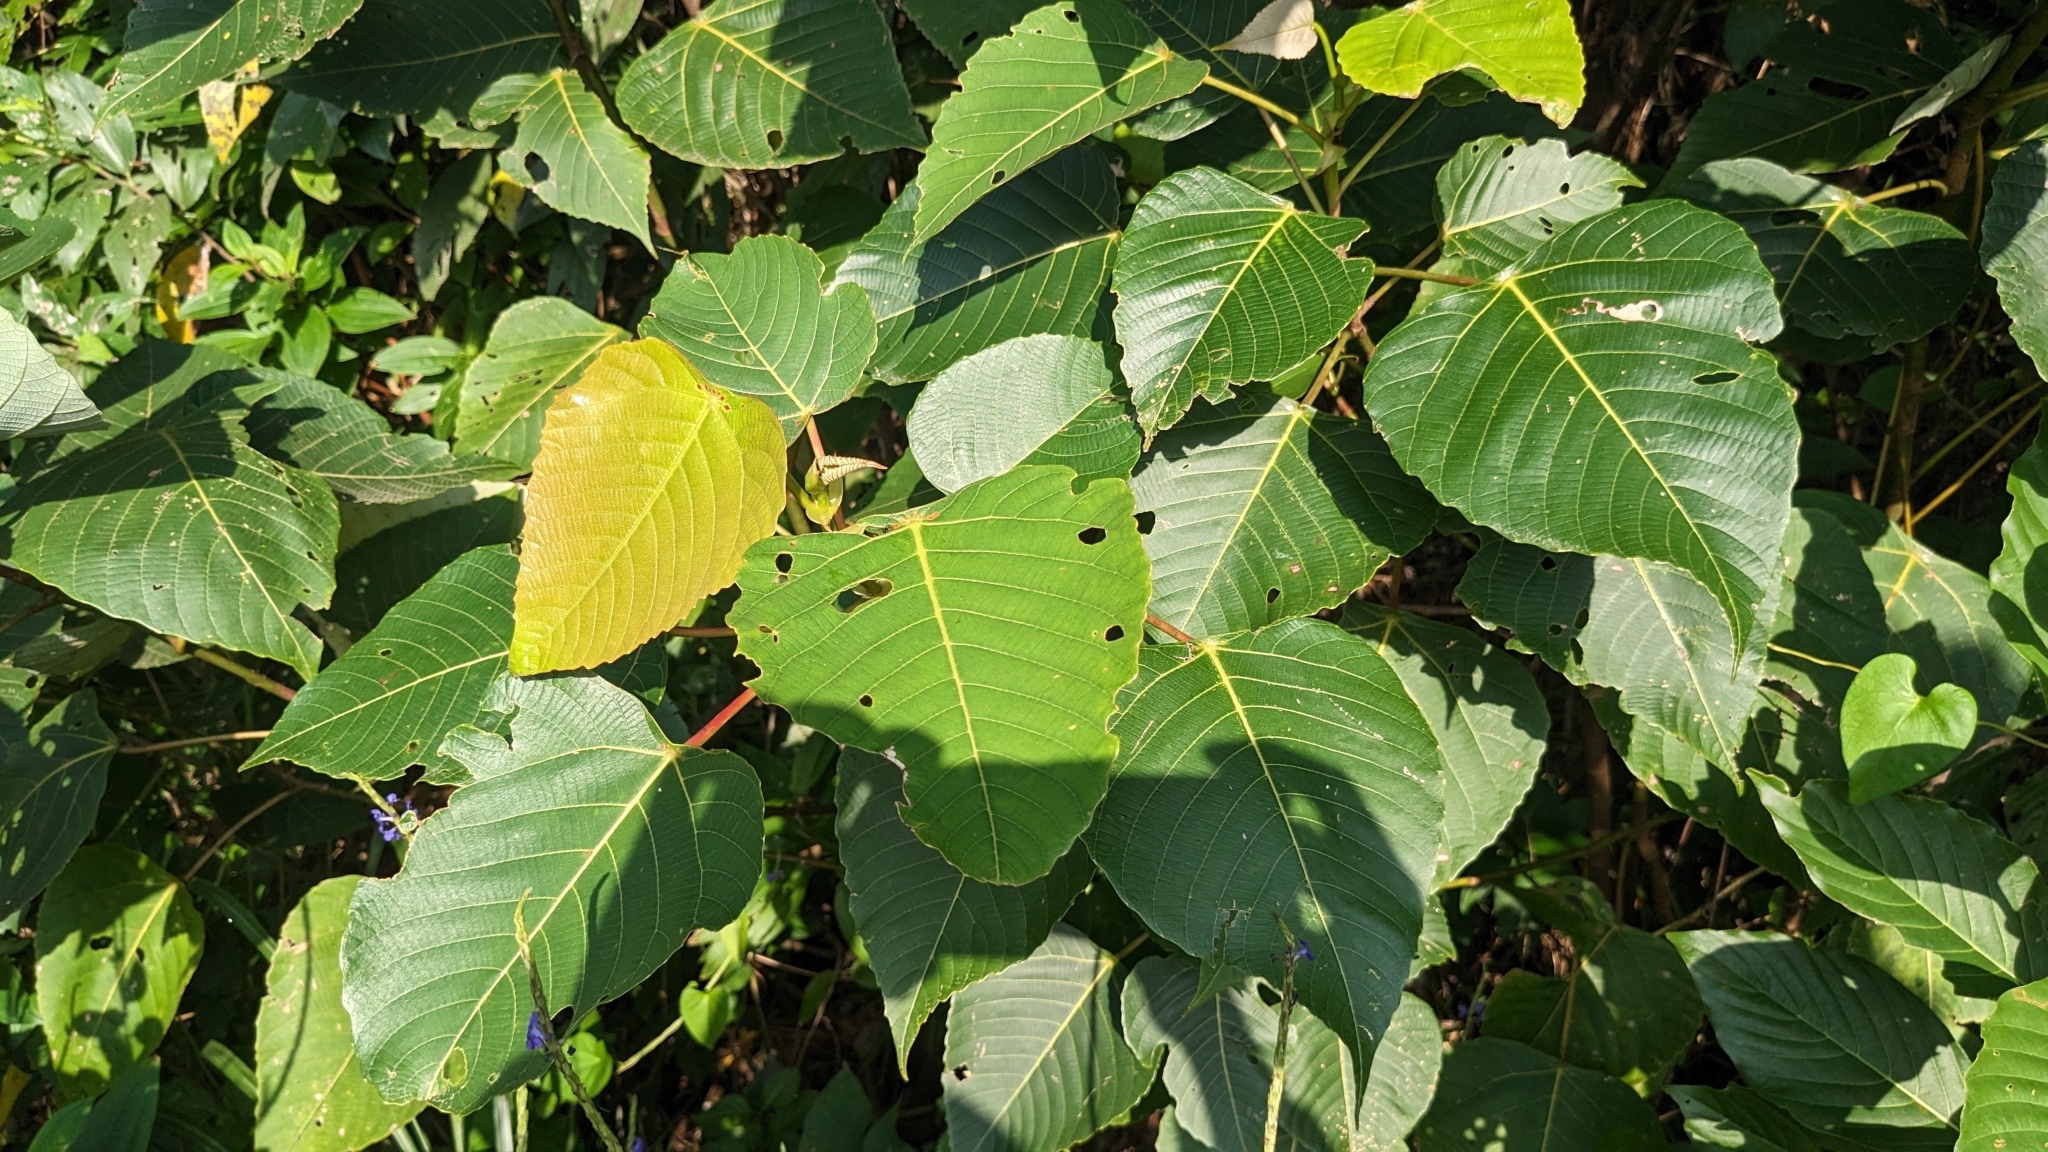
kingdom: Plantae
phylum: Tracheophyta
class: Magnoliopsida
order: Malpighiales
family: Euphorbiaceae
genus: Macaranga
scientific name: Macaranga sinensis
